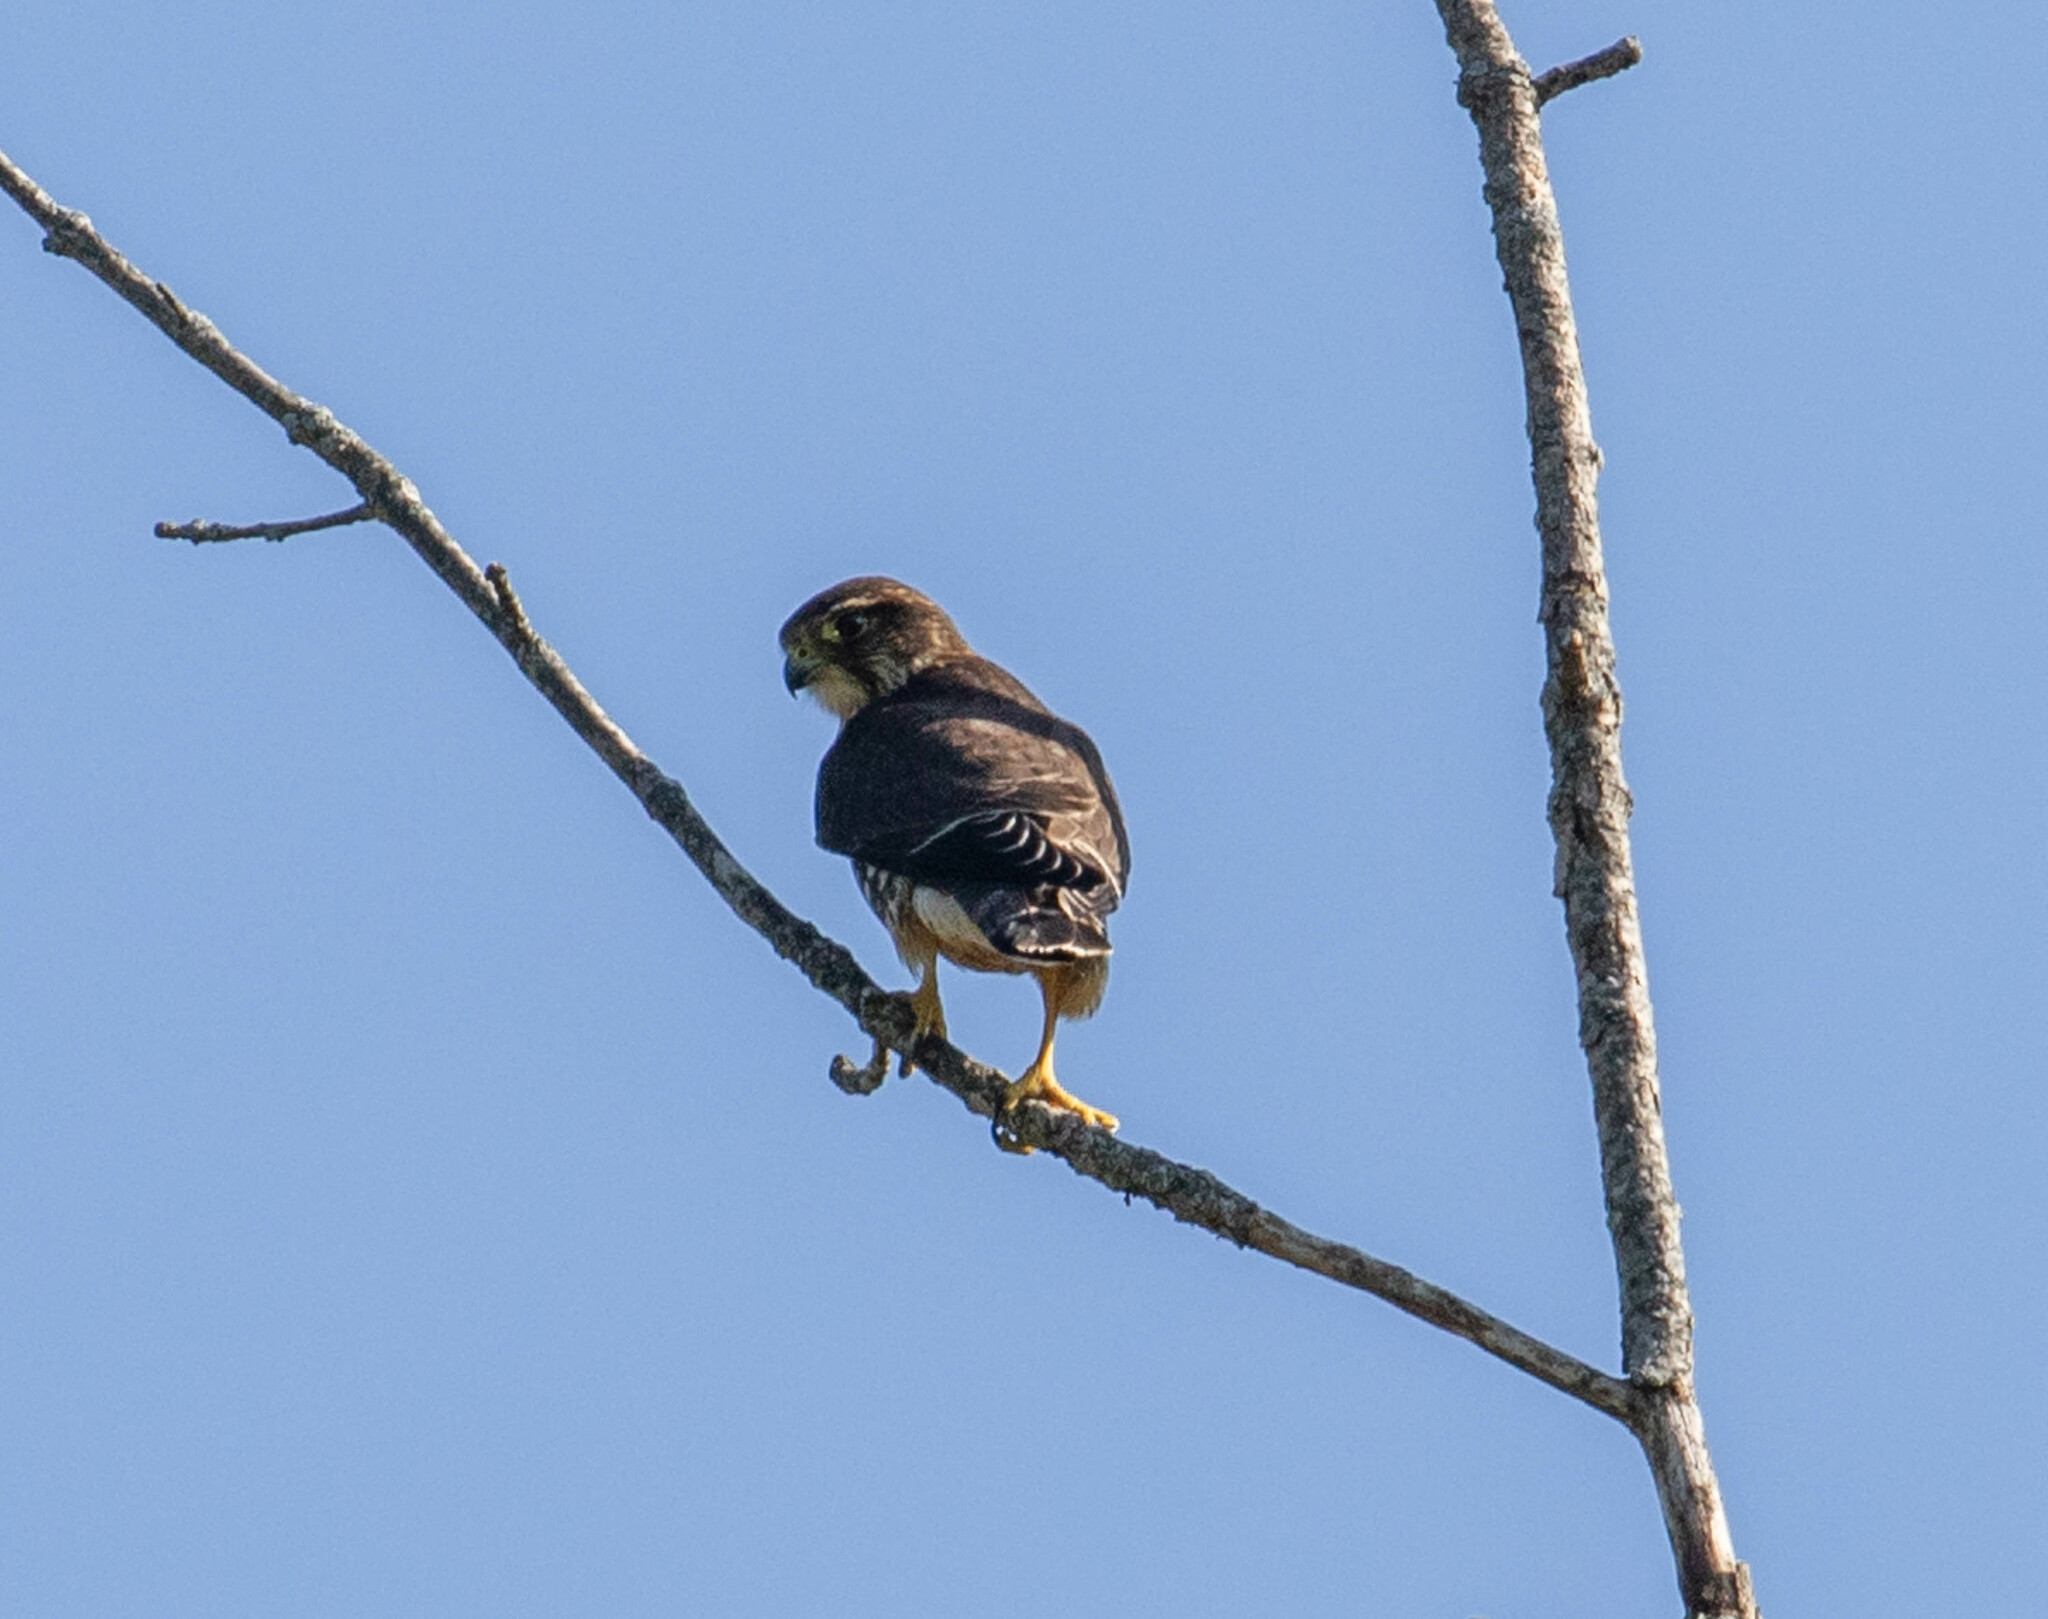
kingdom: Animalia
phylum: Chordata
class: Aves
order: Falconiformes
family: Falconidae
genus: Falco
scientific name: Falco columbarius
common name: Merlin
